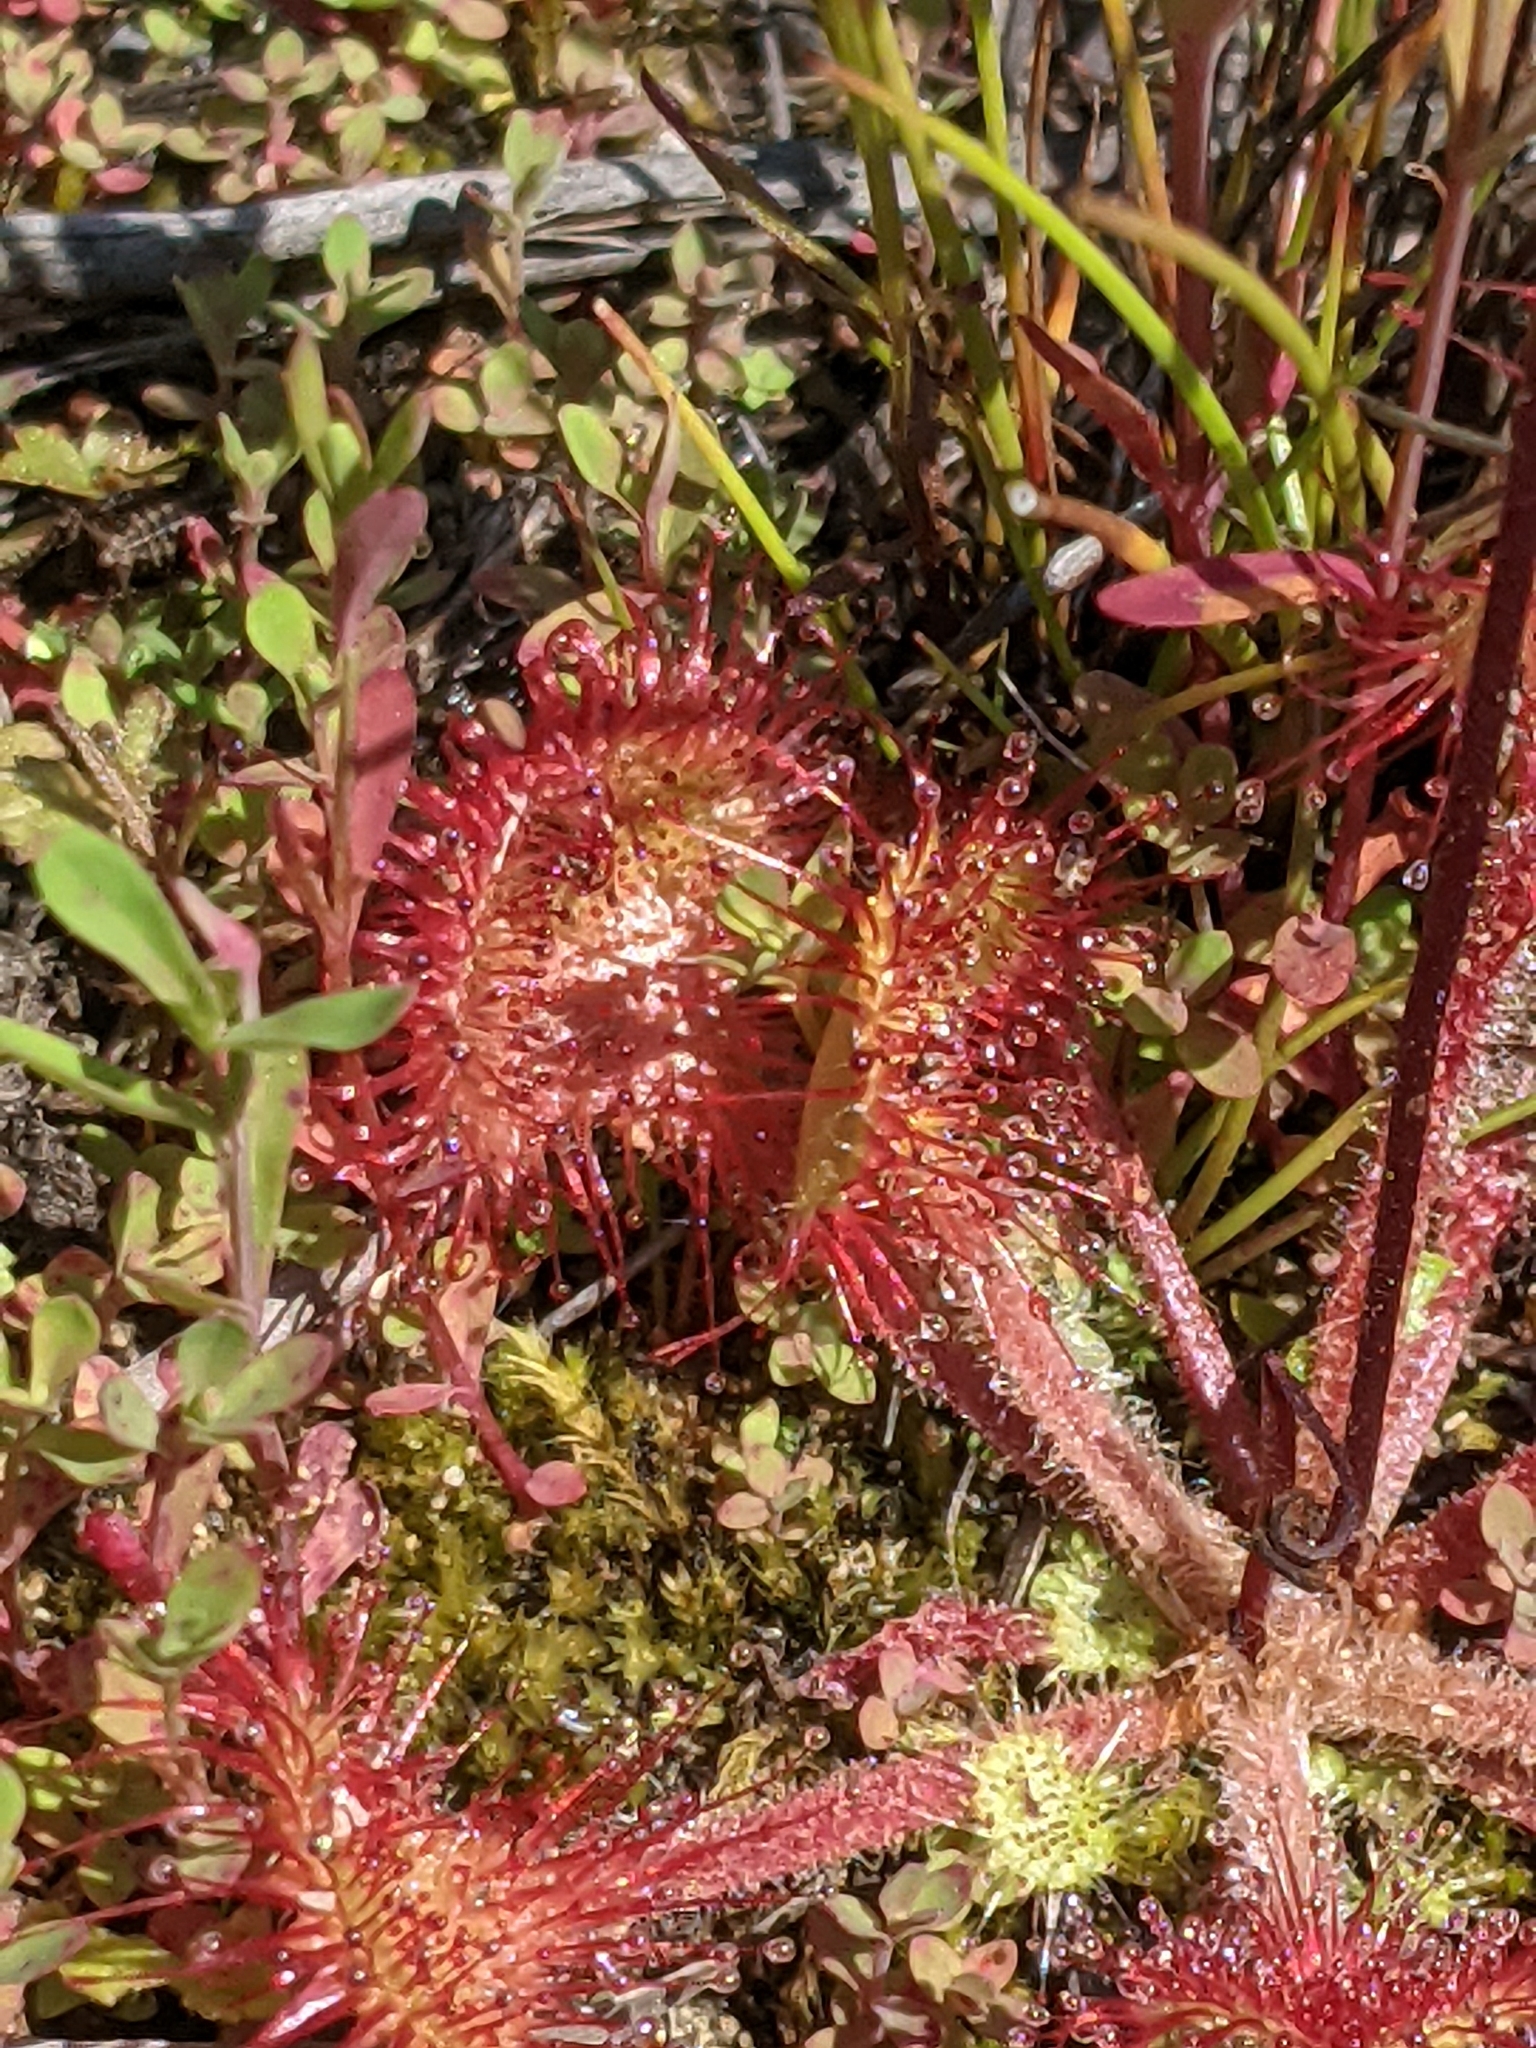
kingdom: Plantae
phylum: Tracheophyta
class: Magnoliopsida
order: Caryophyllales
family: Droseraceae
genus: Drosera
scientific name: Drosera rotundifolia
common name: Round-leaved sundew
